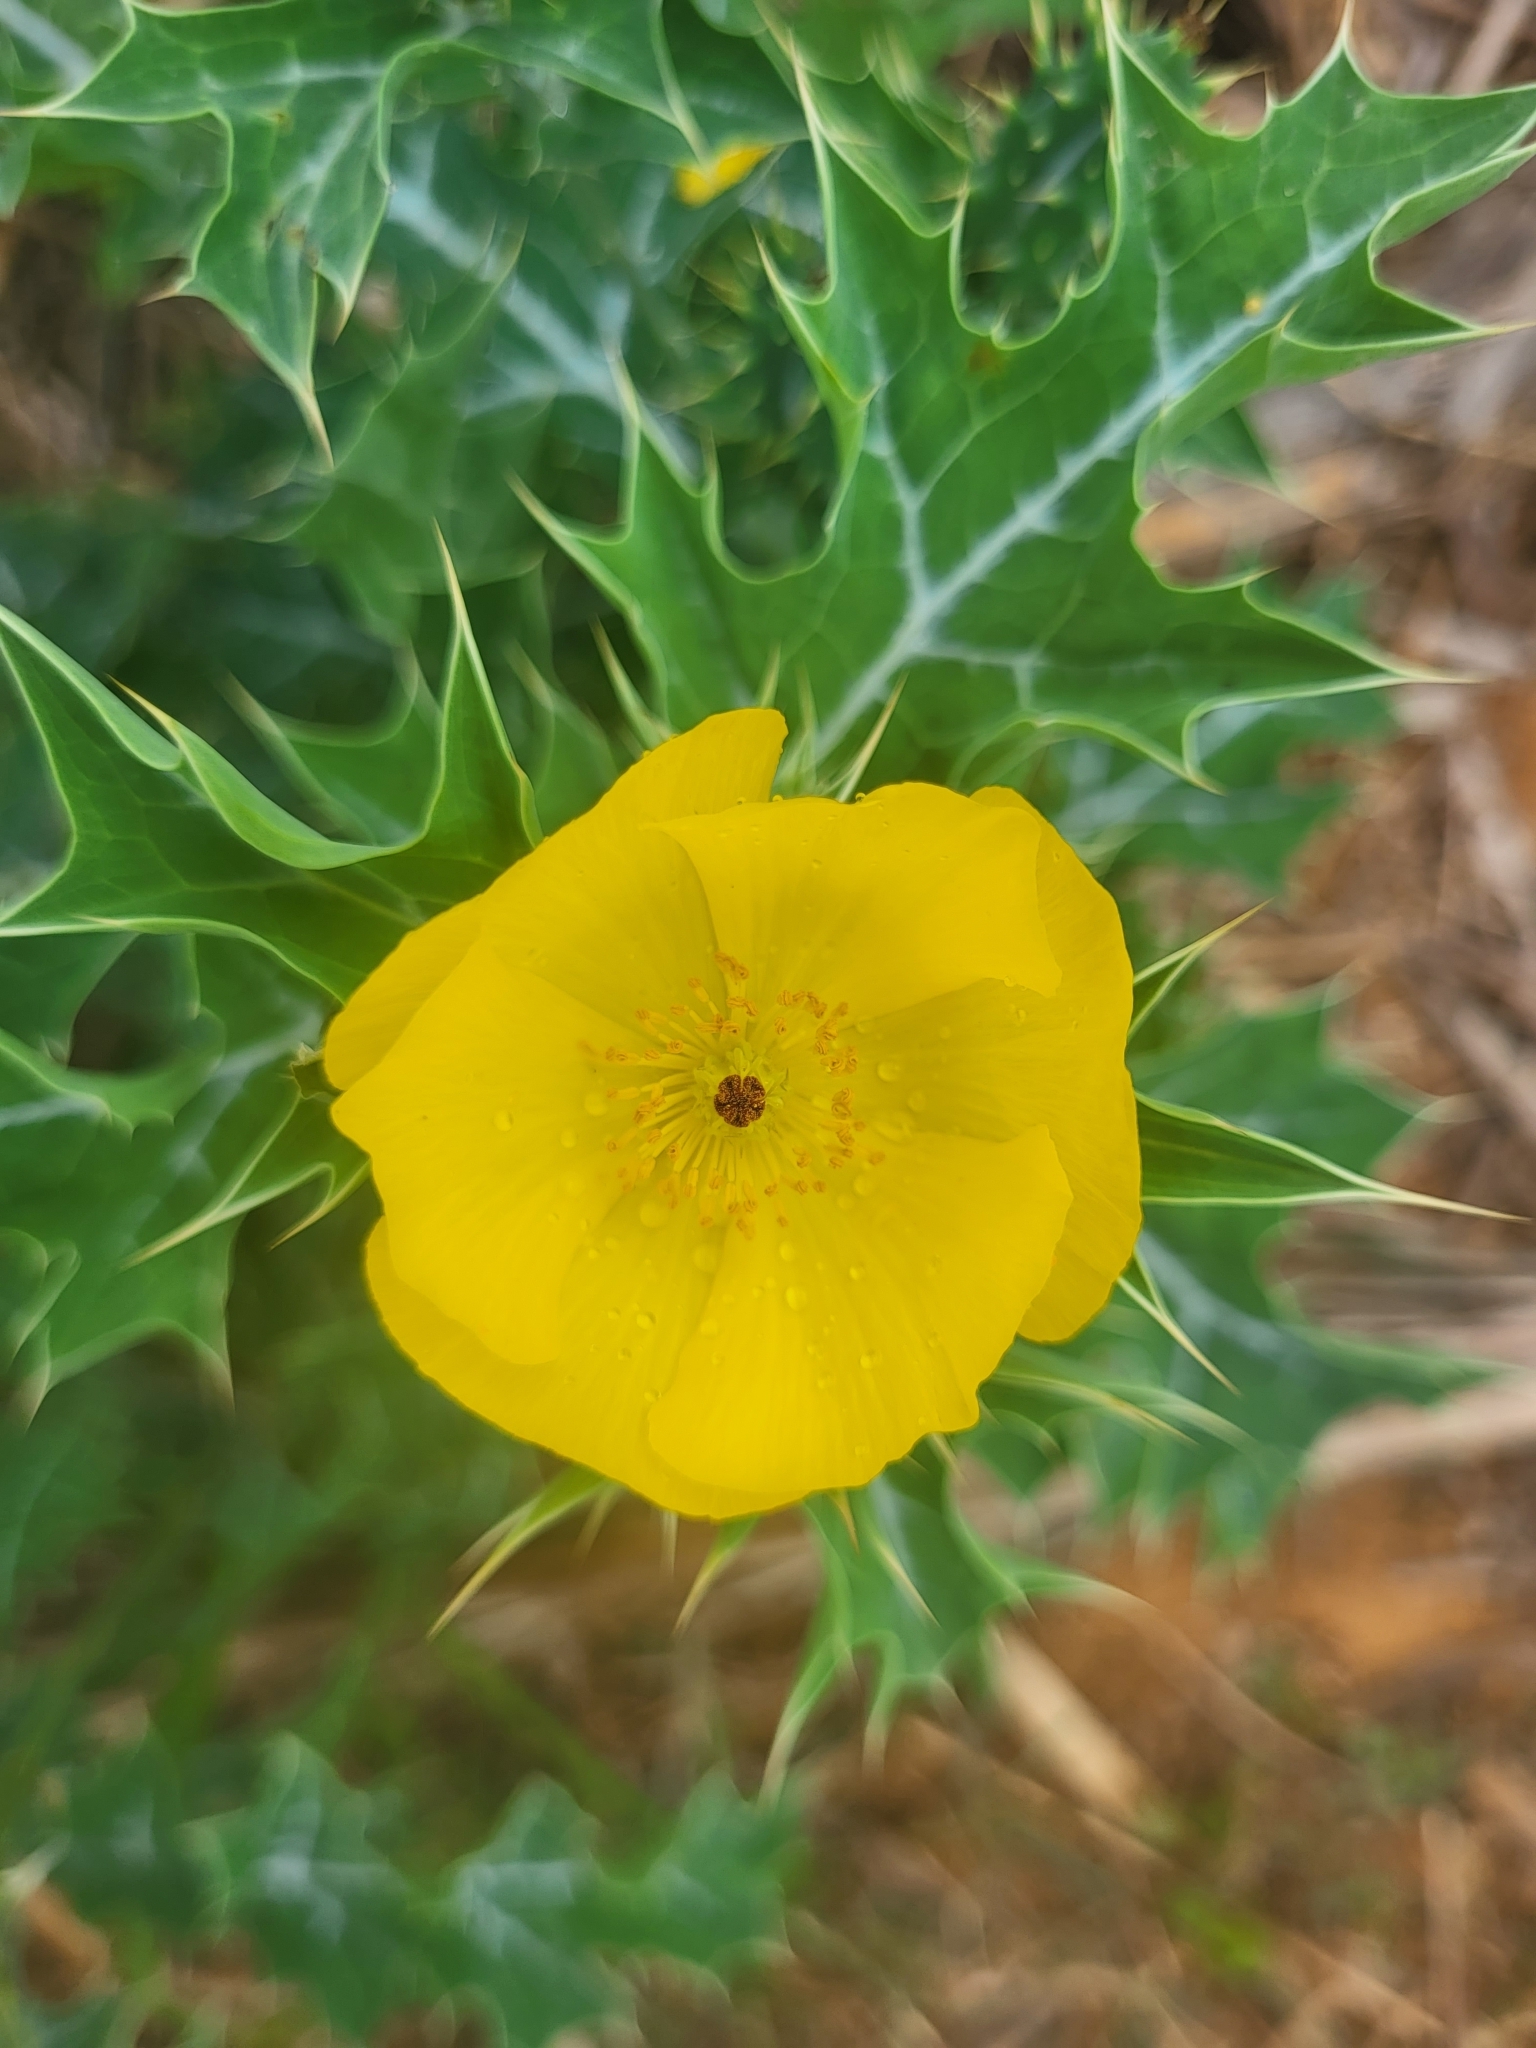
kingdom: Plantae
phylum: Tracheophyta
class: Magnoliopsida
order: Ranunculales
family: Papaveraceae
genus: Argemone
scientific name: Argemone mexicana
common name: Mexican poppy
